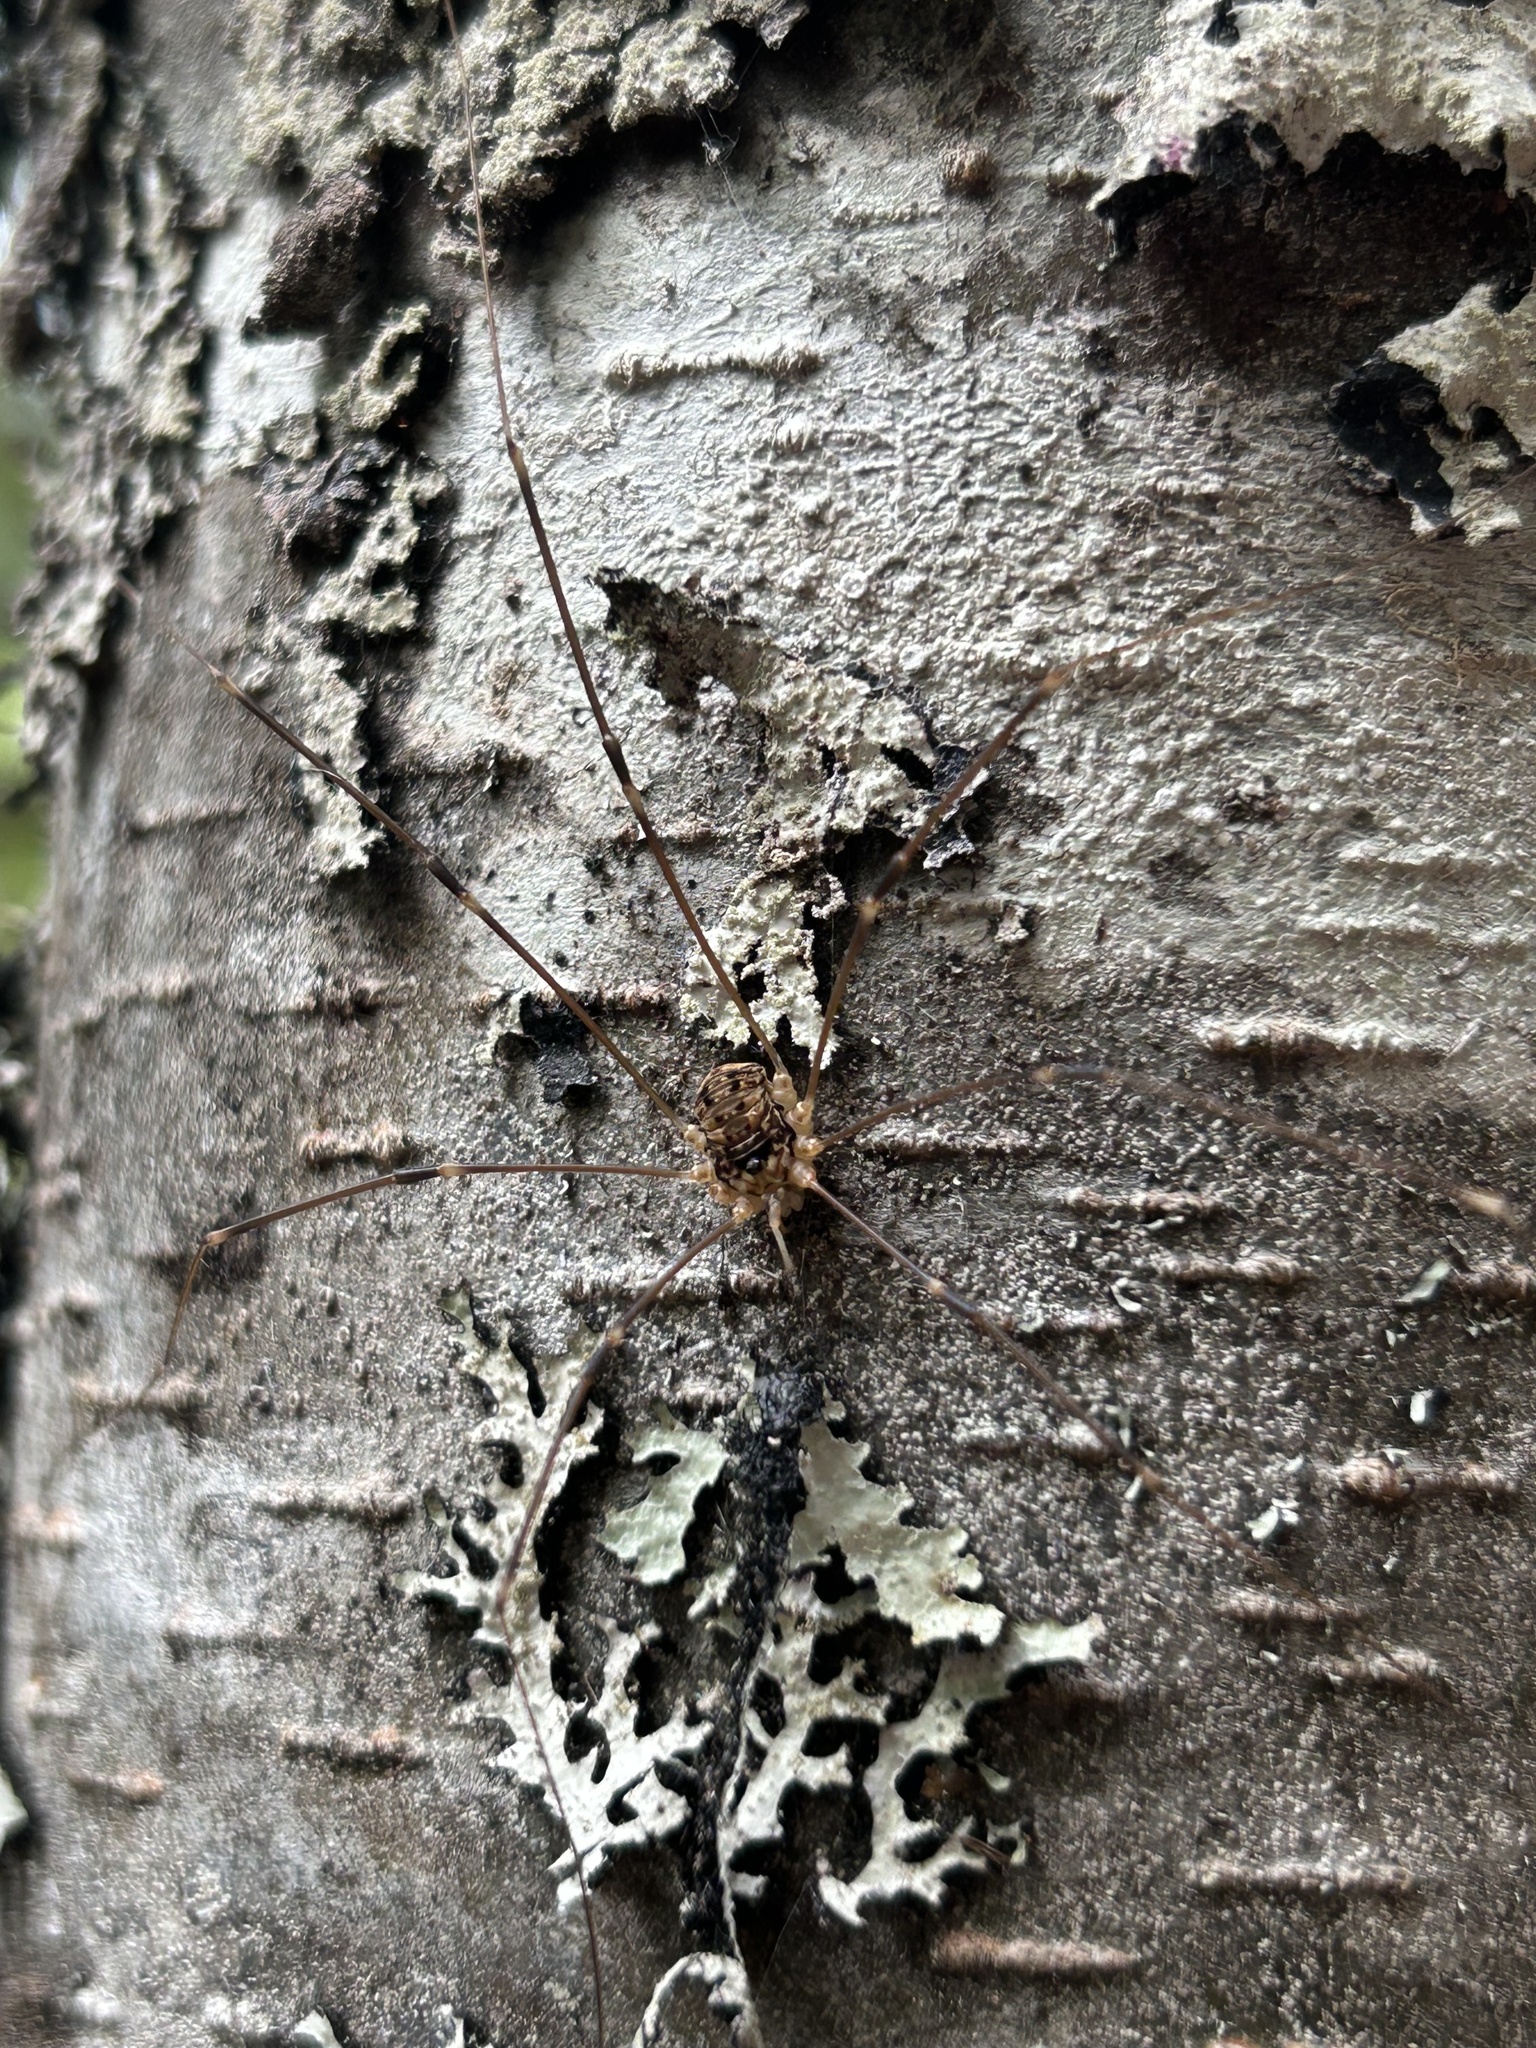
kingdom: Animalia
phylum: Arthropoda
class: Arachnida
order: Opiliones
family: Sclerosomatidae
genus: Nelima
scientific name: Nelima paessleri
